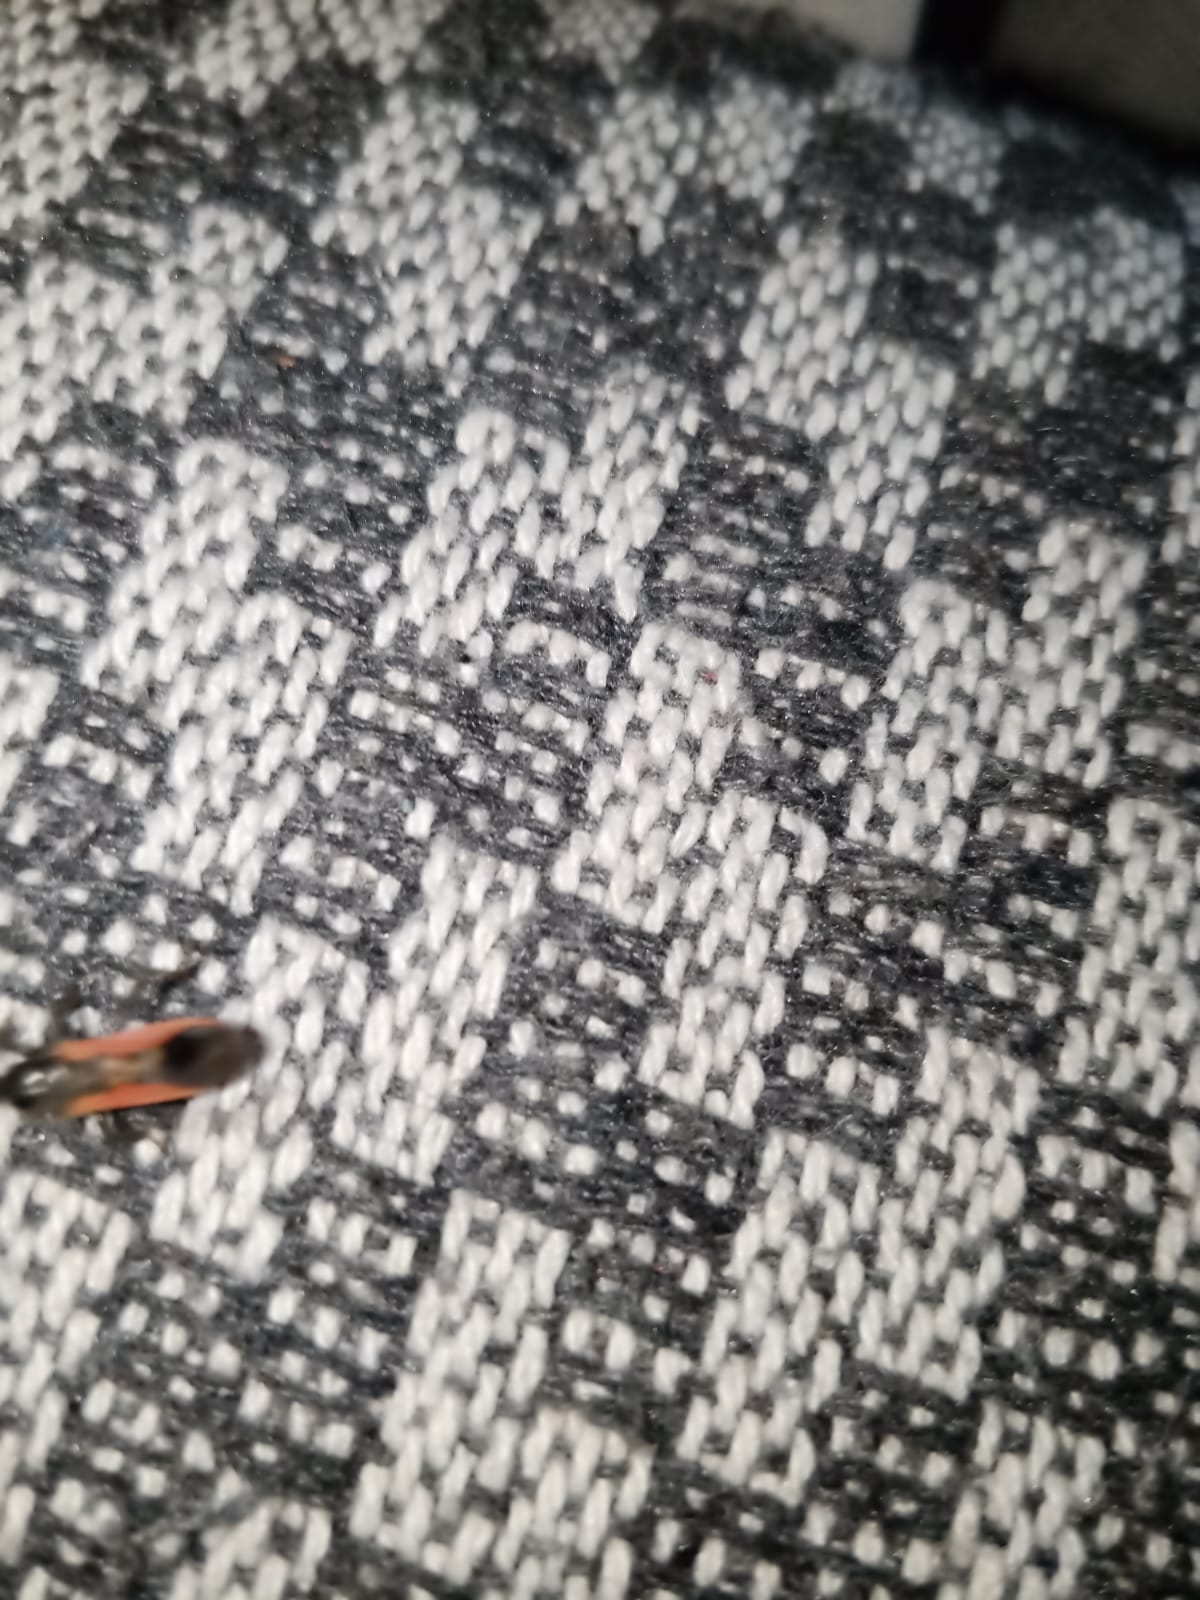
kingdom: Animalia
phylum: Arthropoda
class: Insecta
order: Hemiptera
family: Reduviidae
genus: Peirates
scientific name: Peirates hybridus
